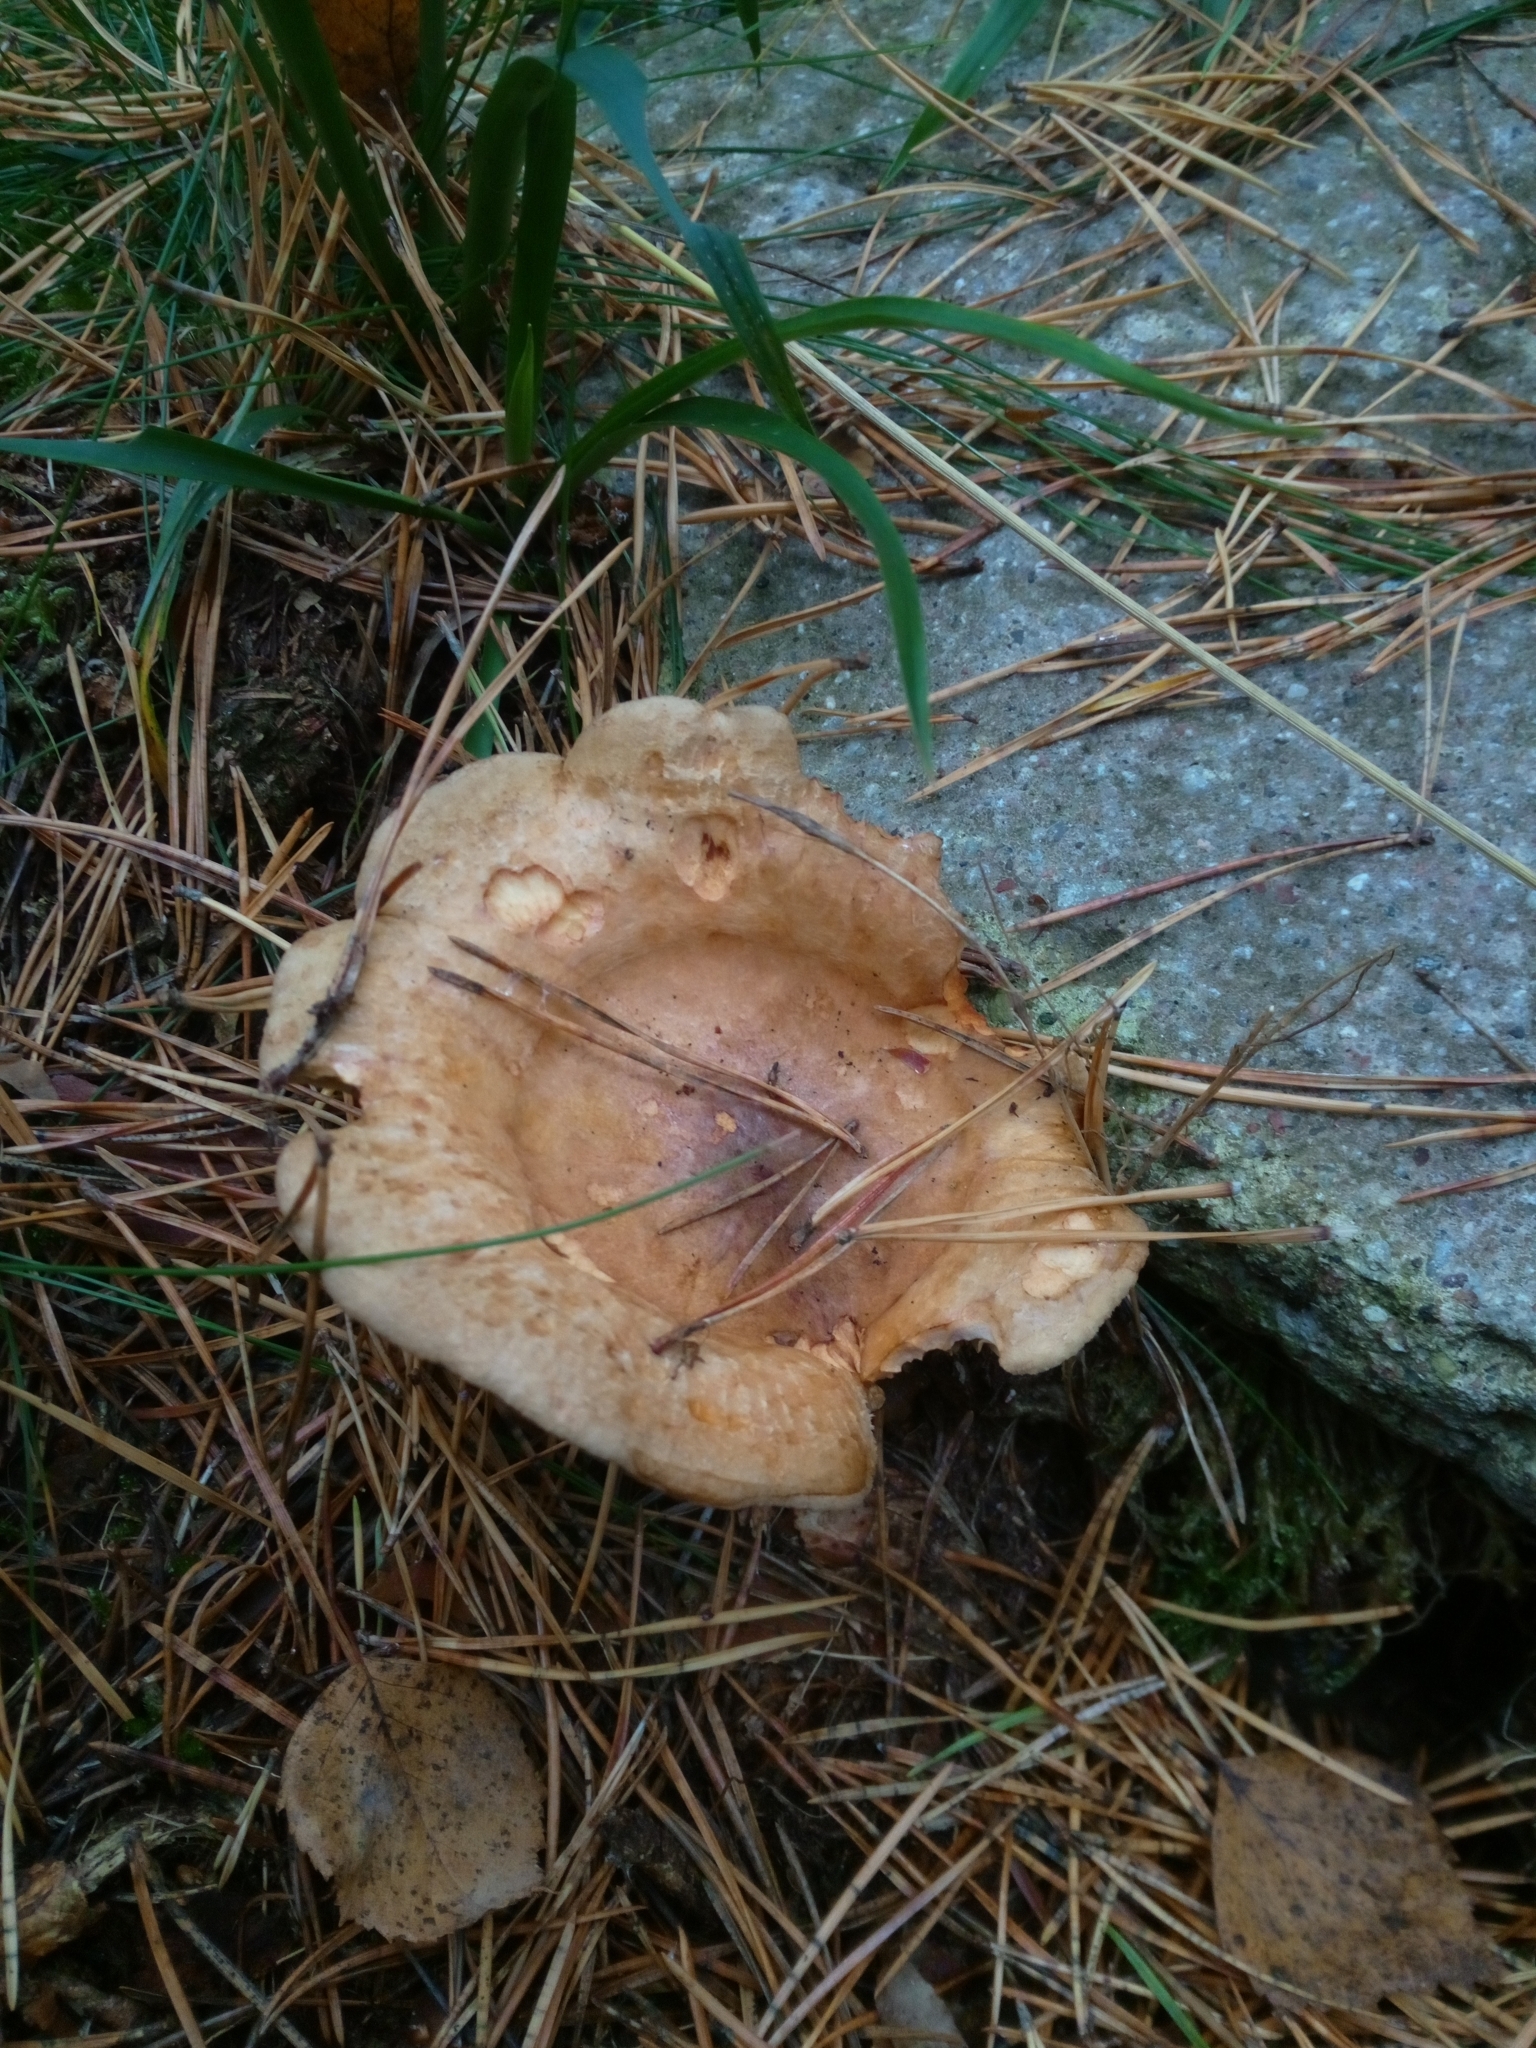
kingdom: Fungi
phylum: Basidiomycota
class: Agaricomycetes
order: Boletales
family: Paxillaceae
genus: Paxillus
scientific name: Paxillus involutus
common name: Brown roll rim
